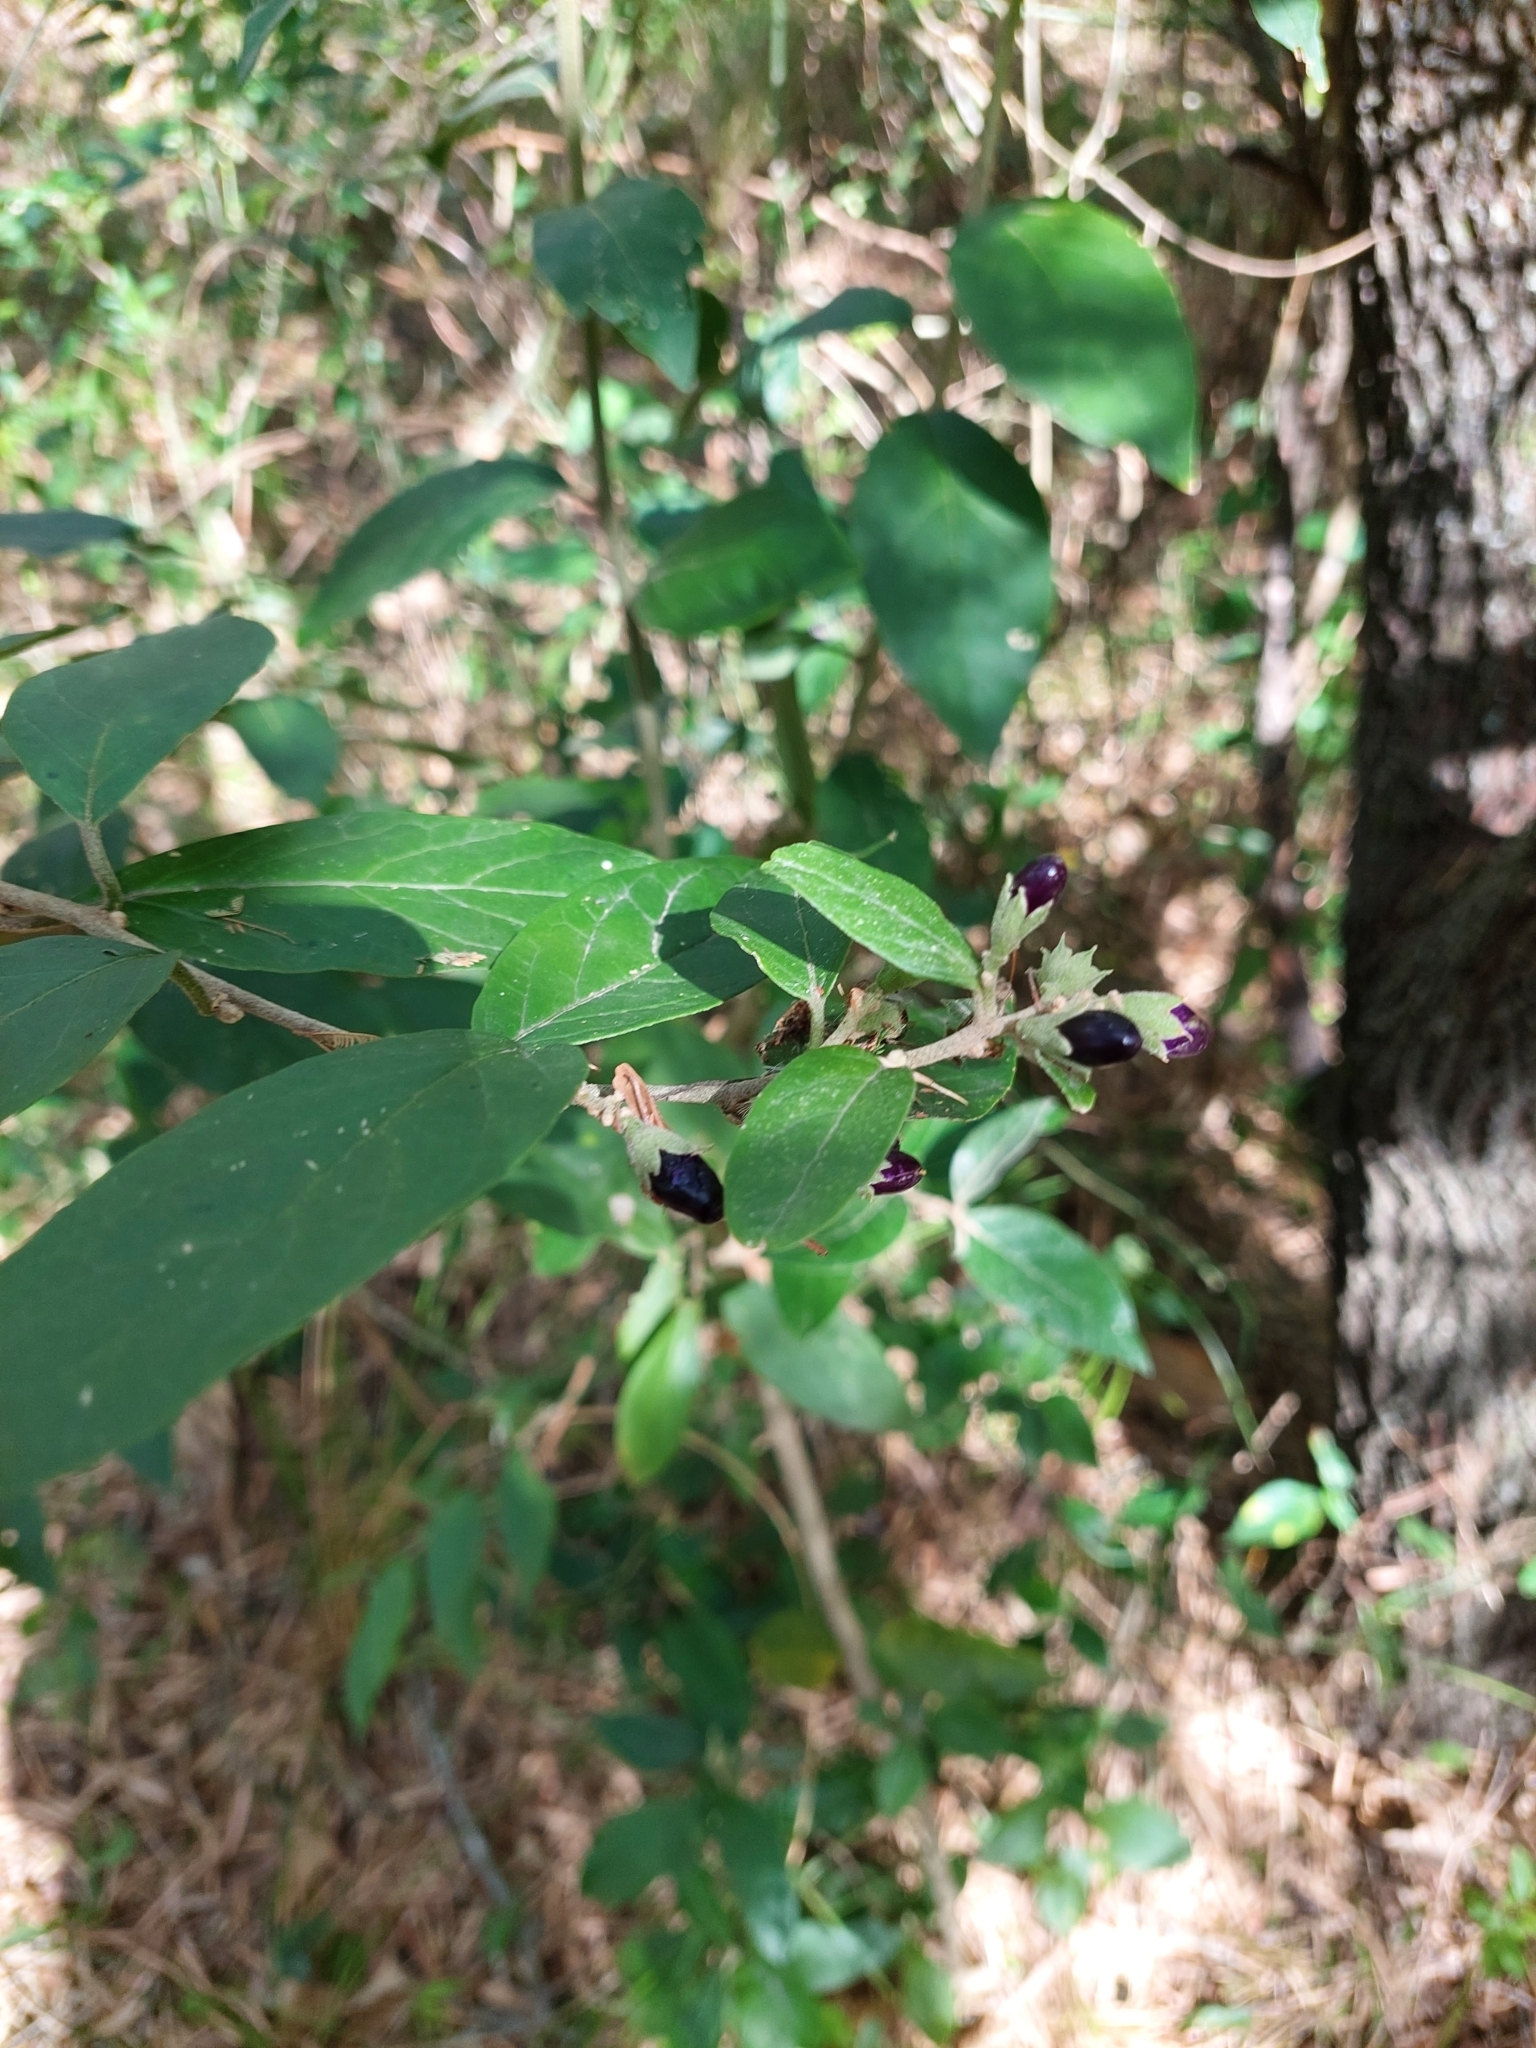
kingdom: Plantae
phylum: Tracheophyta
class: Magnoliopsida
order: Solanales
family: Solanaceae
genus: Cestrum
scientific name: Cestrum strigillatum
